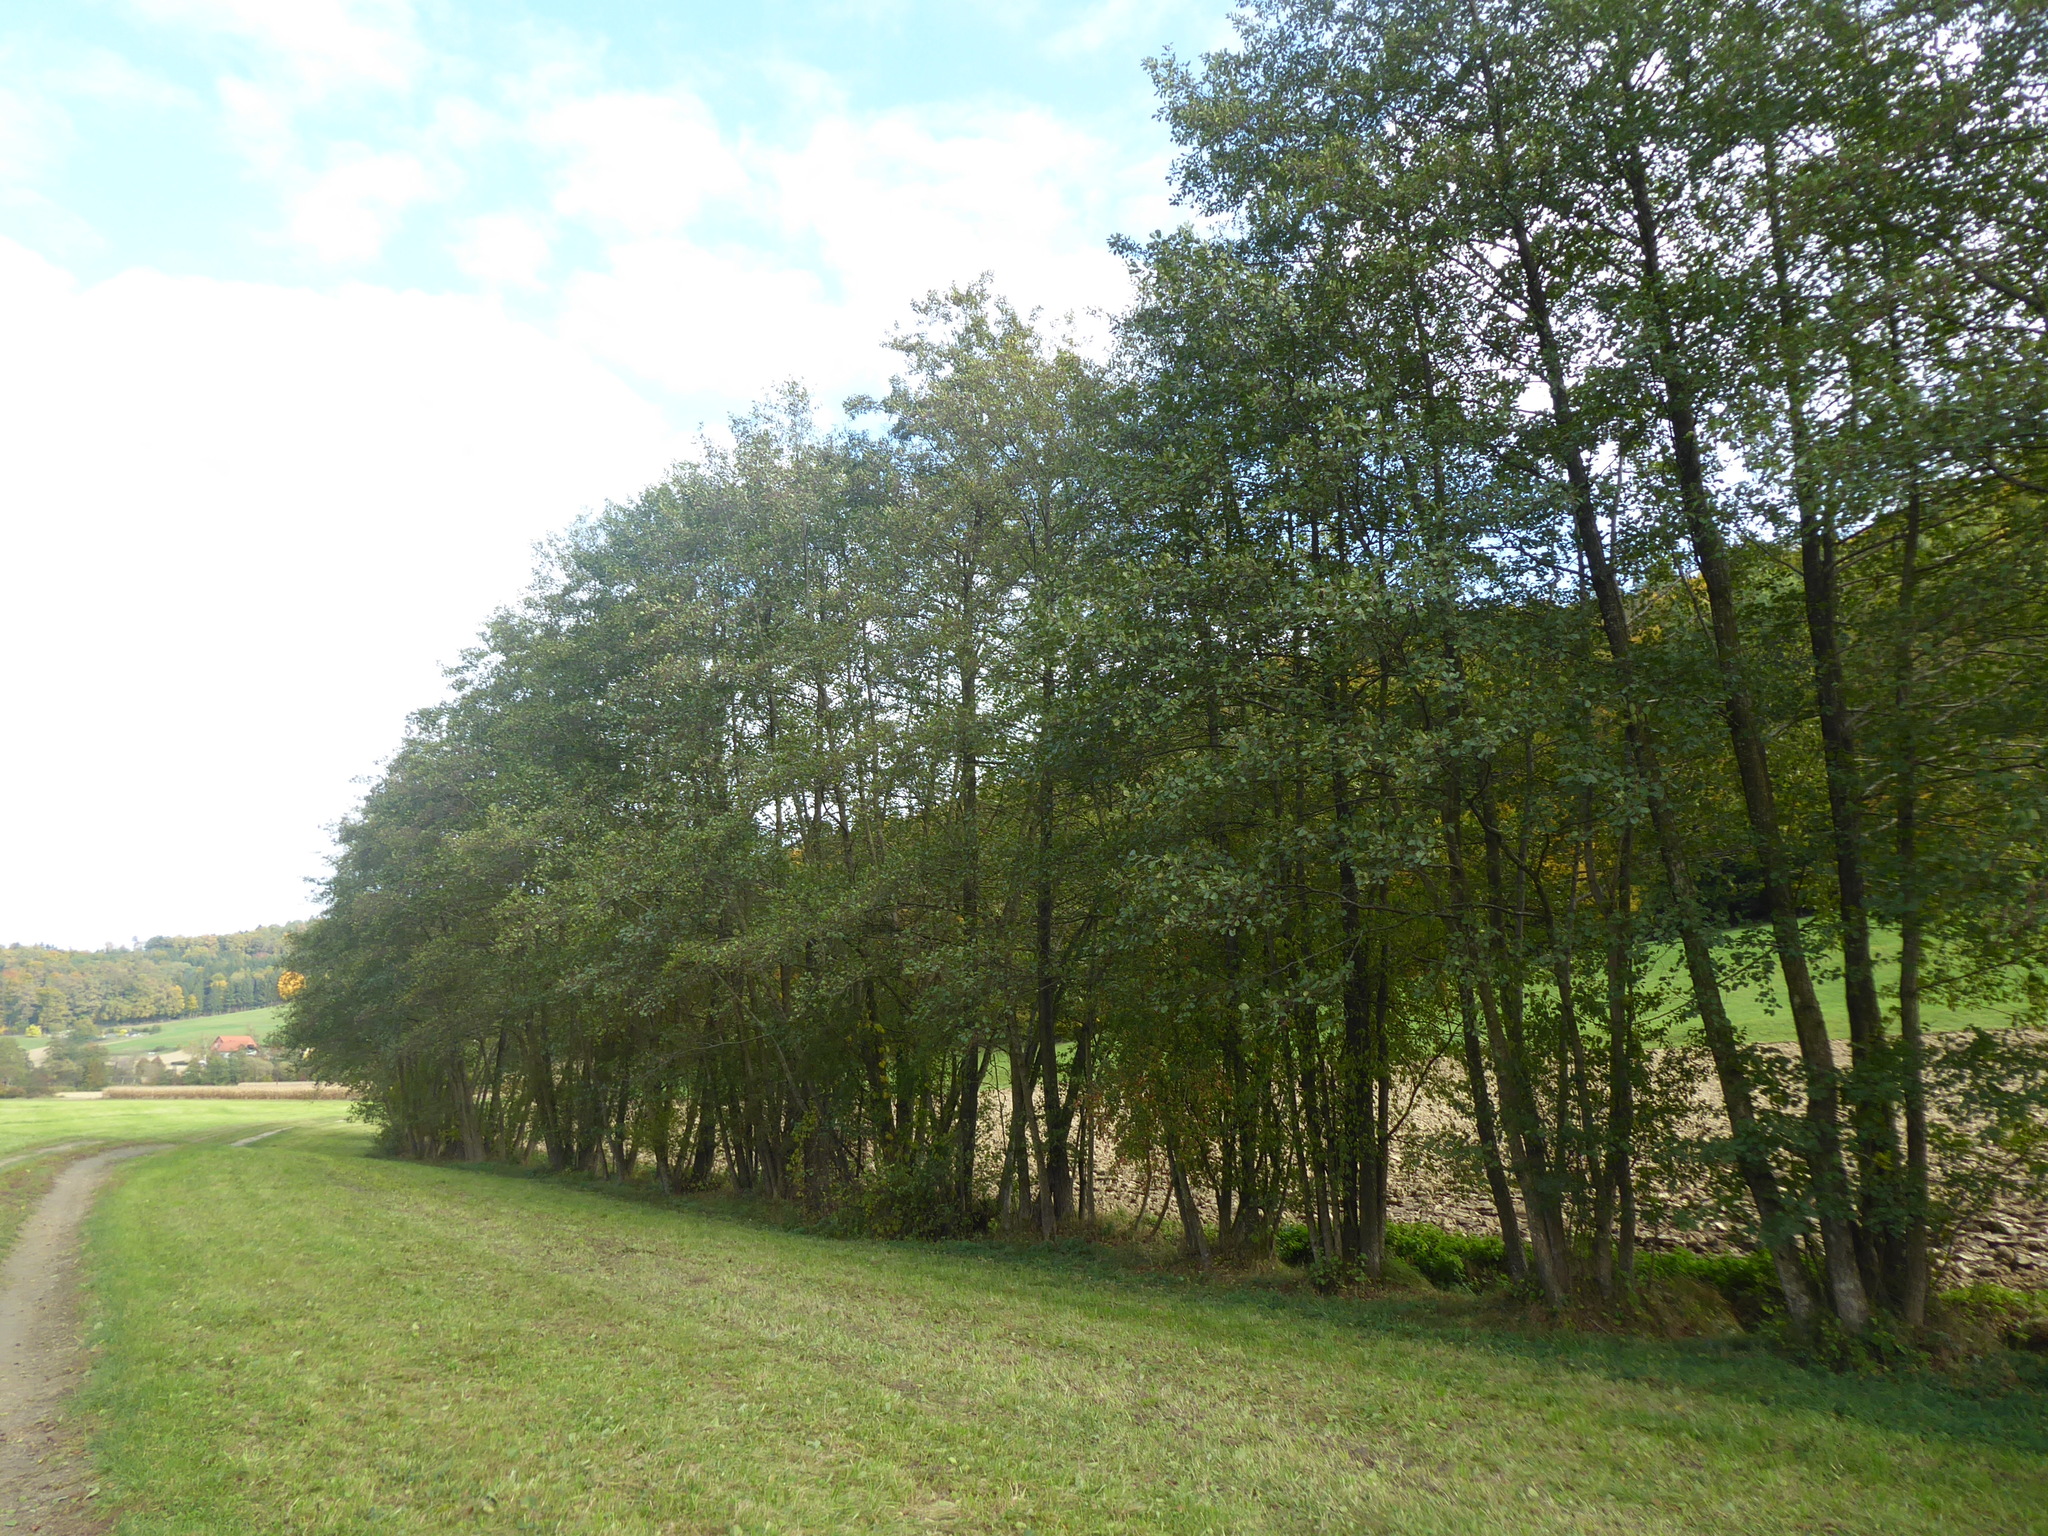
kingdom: Plantae
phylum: Tracheophyta
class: Magnoliopsida
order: Fagales
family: Betulaceae
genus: Alnus
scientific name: Alnus glutinosa
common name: Black alder
